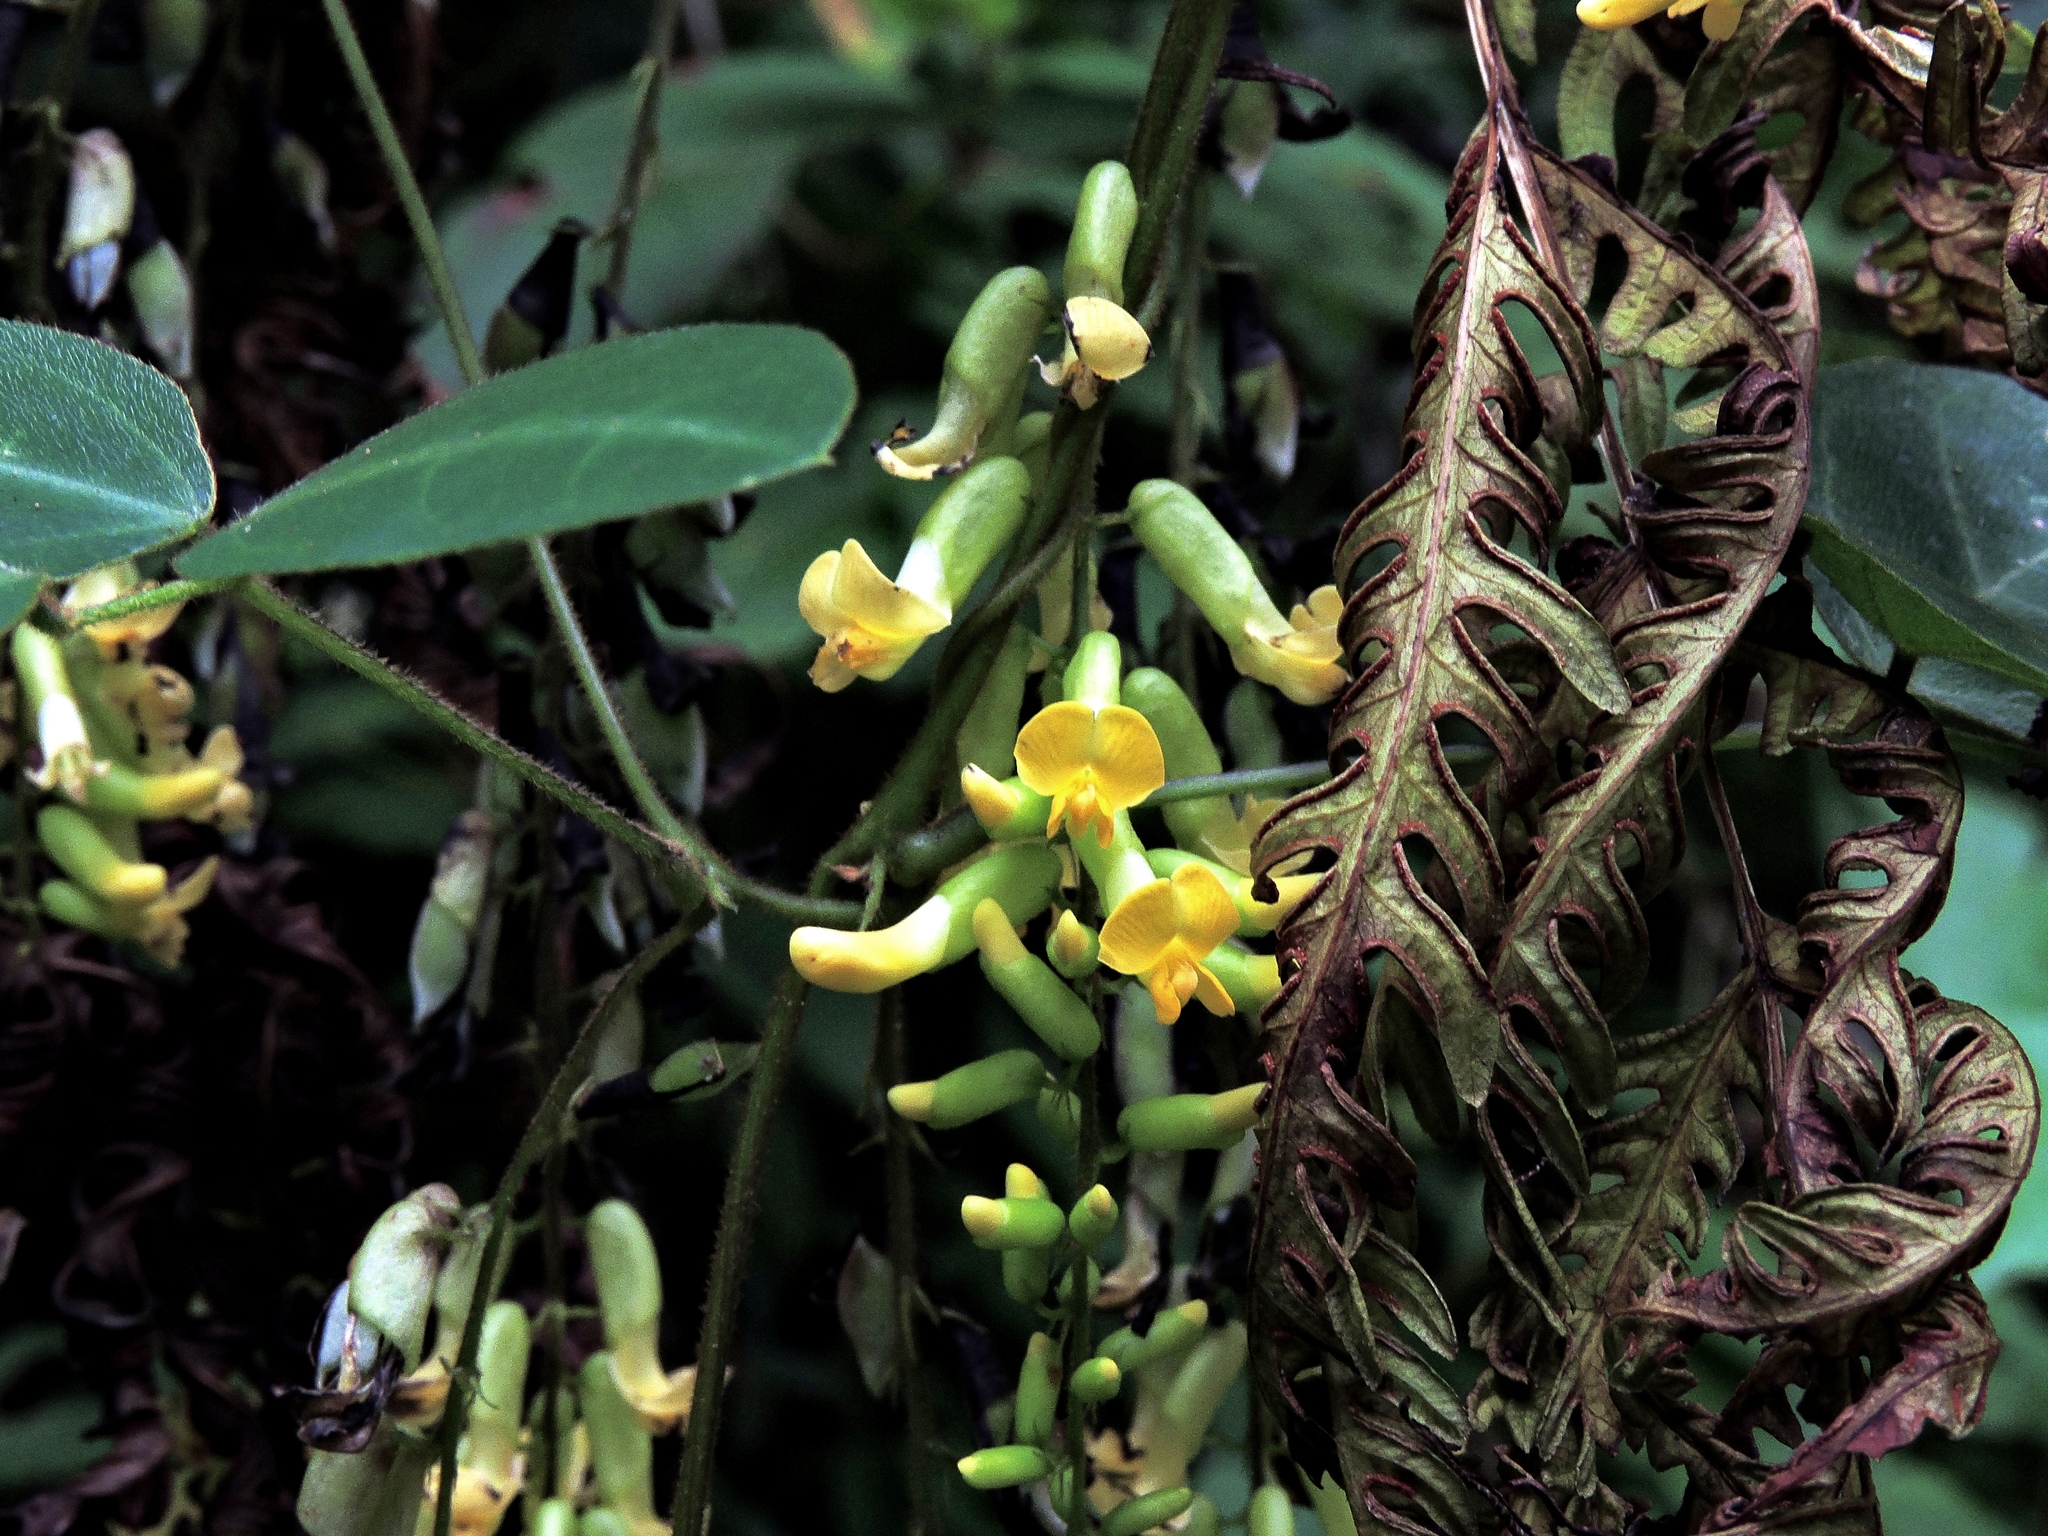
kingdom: Plantae
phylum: Tracheophyta
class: Magnoliopsida
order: Fabales
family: Fabaceae
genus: Dumasia
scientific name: Dumasia villosa
